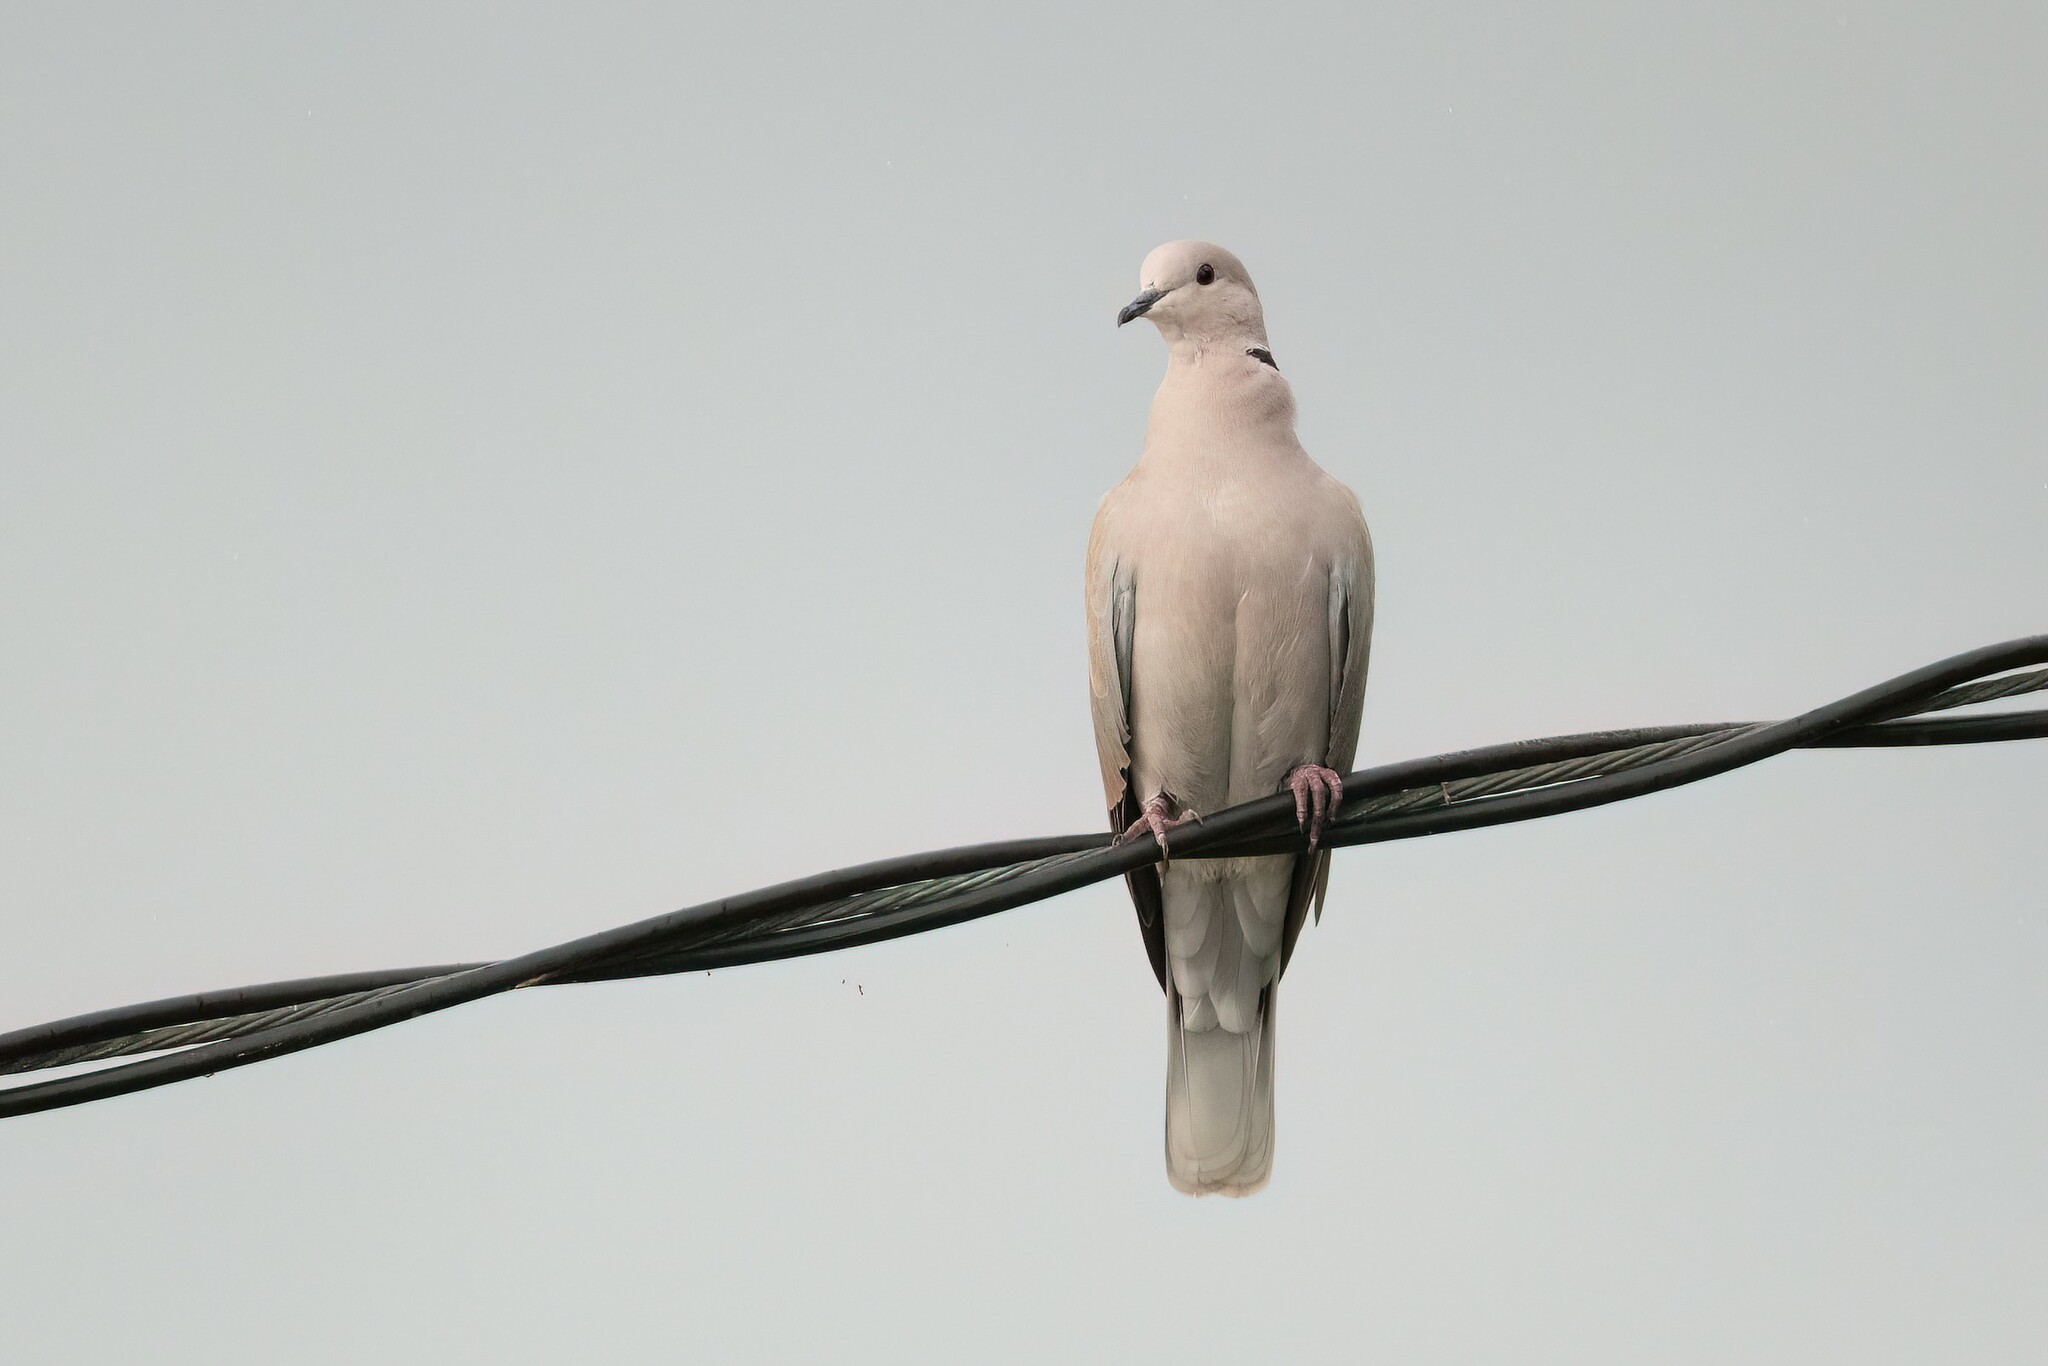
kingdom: Animalia
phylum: Chordata
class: Aves
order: Columbiformes
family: Columbidae
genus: Streptopelia
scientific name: Streptopelia roseogrisea
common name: African collared dove
